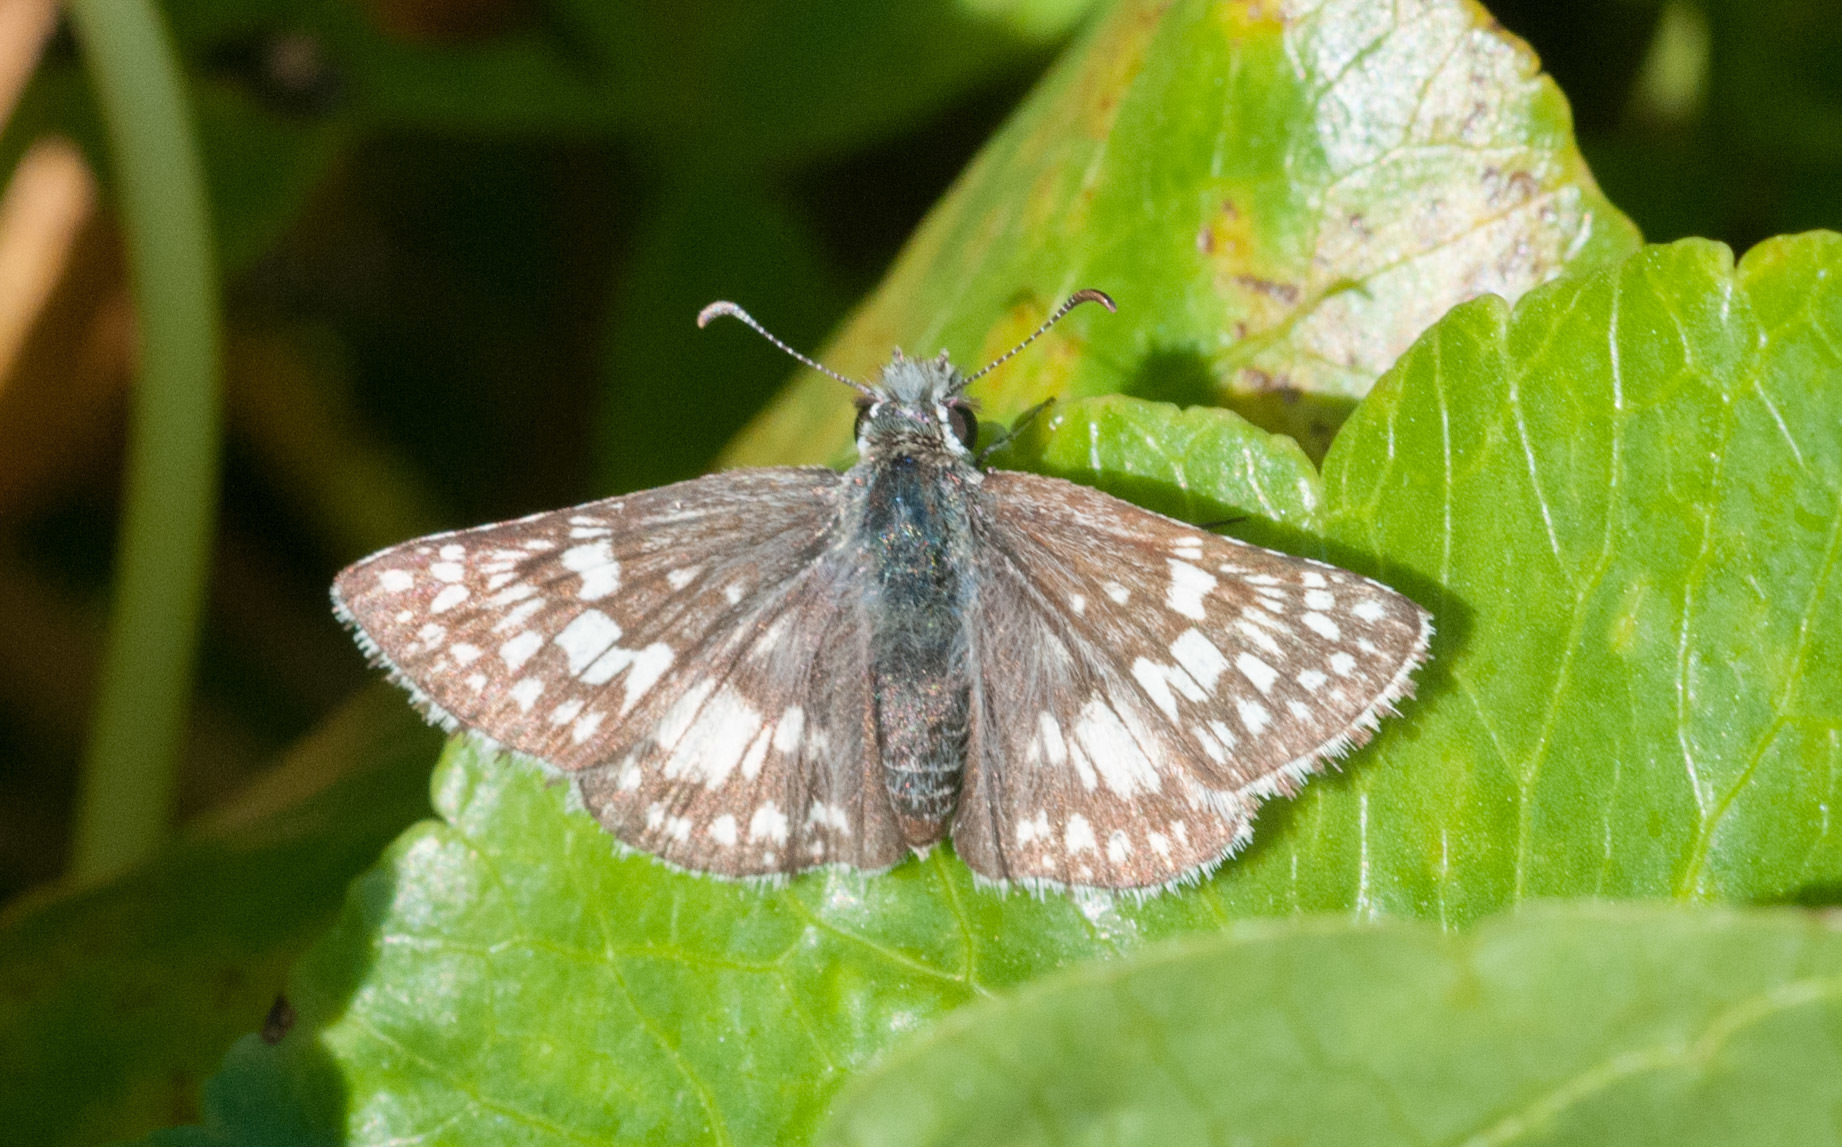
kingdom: Animalia
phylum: Arthropoda
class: Insecta
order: Lepidoptera
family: Hesperiidae
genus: Burnsius
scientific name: Burnsius albezens
